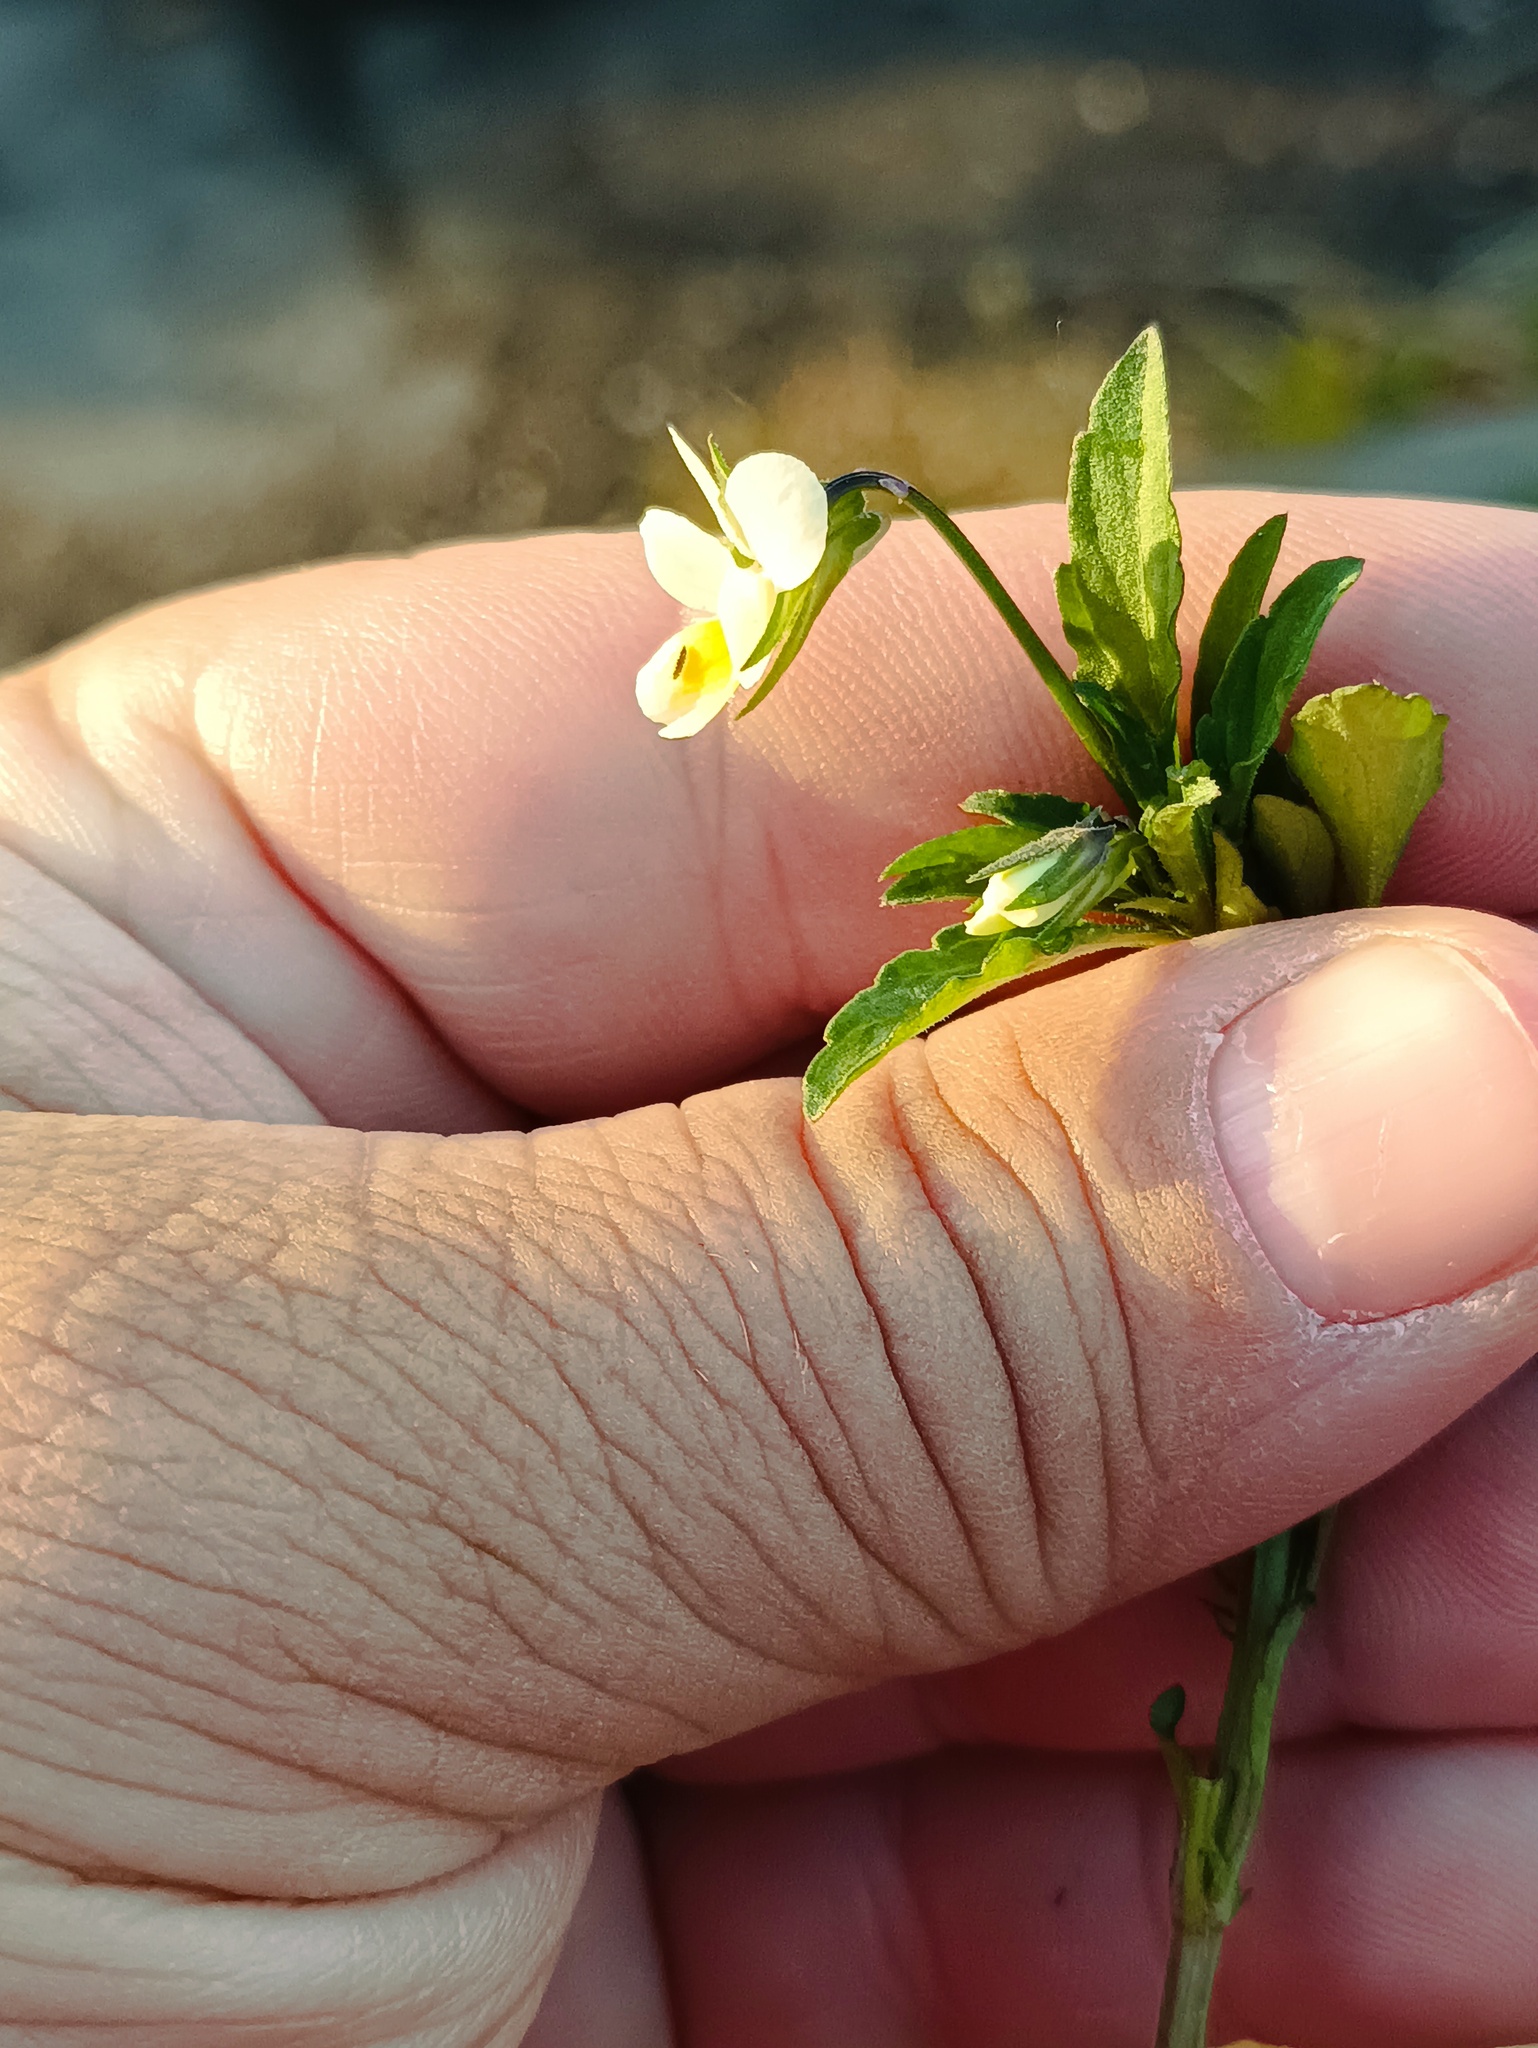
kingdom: Plantae
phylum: Tracheophyta
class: Magnoliopsida
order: Malpighiales
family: Violaceae
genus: Viola
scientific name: Viola arvensis
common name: Field pansy
